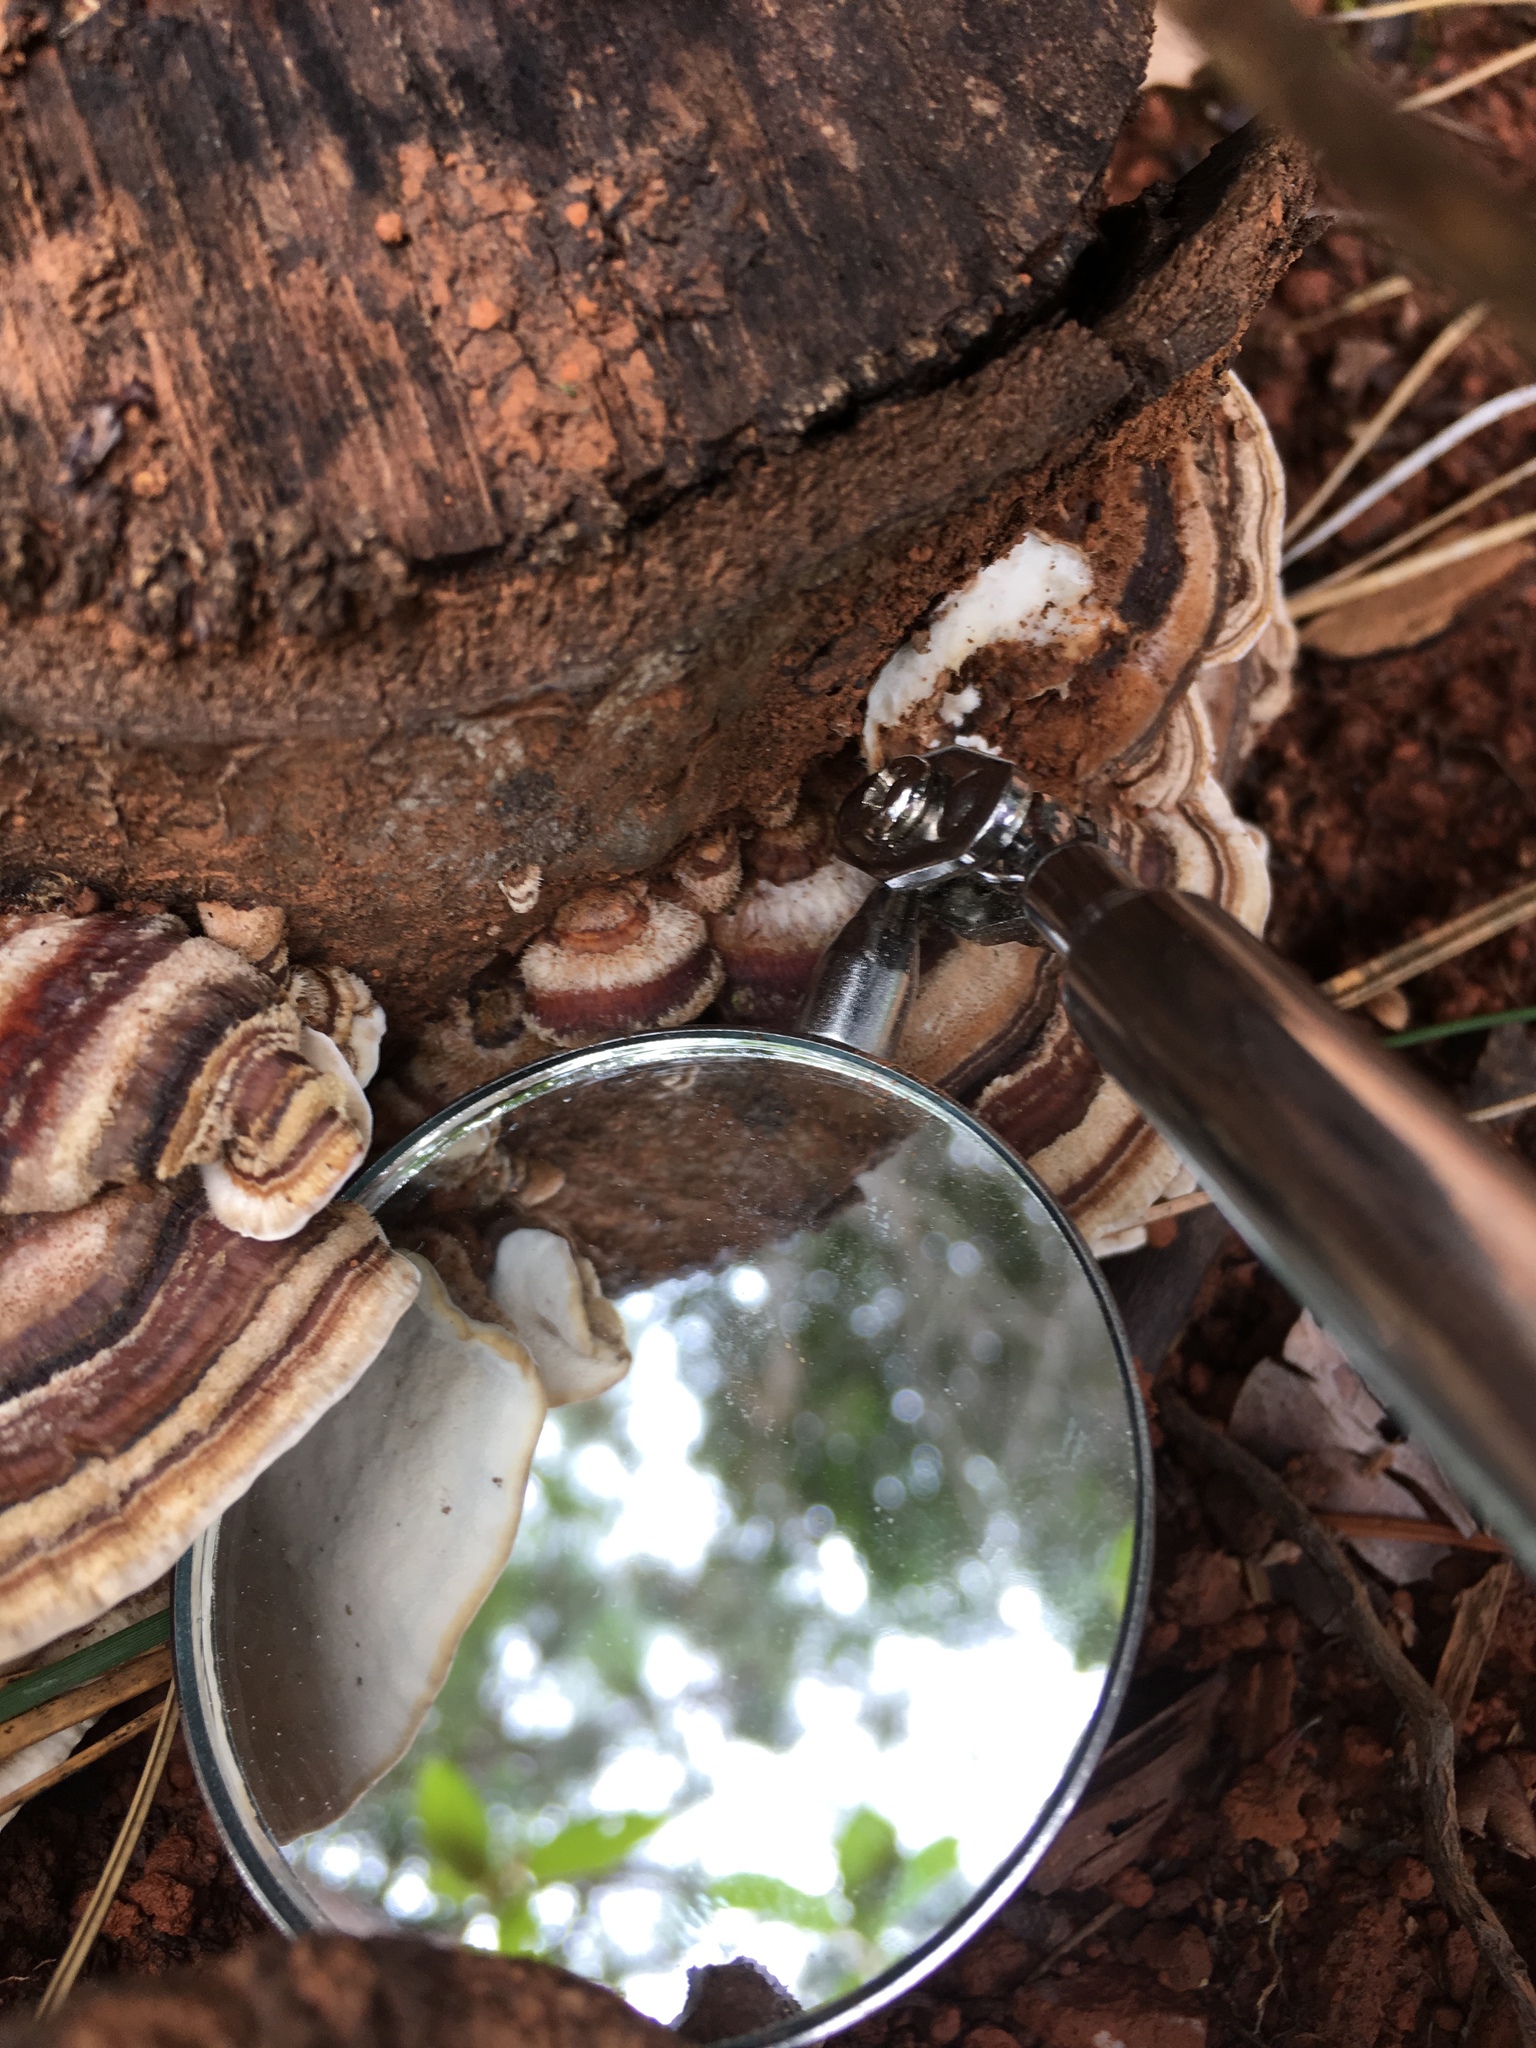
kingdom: Fungi
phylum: Basidiomycota
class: Agaricomycetes
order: Polyporales
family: Polyporaceae
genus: Trametes
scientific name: Trametes versicolor
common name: Turkeytail
